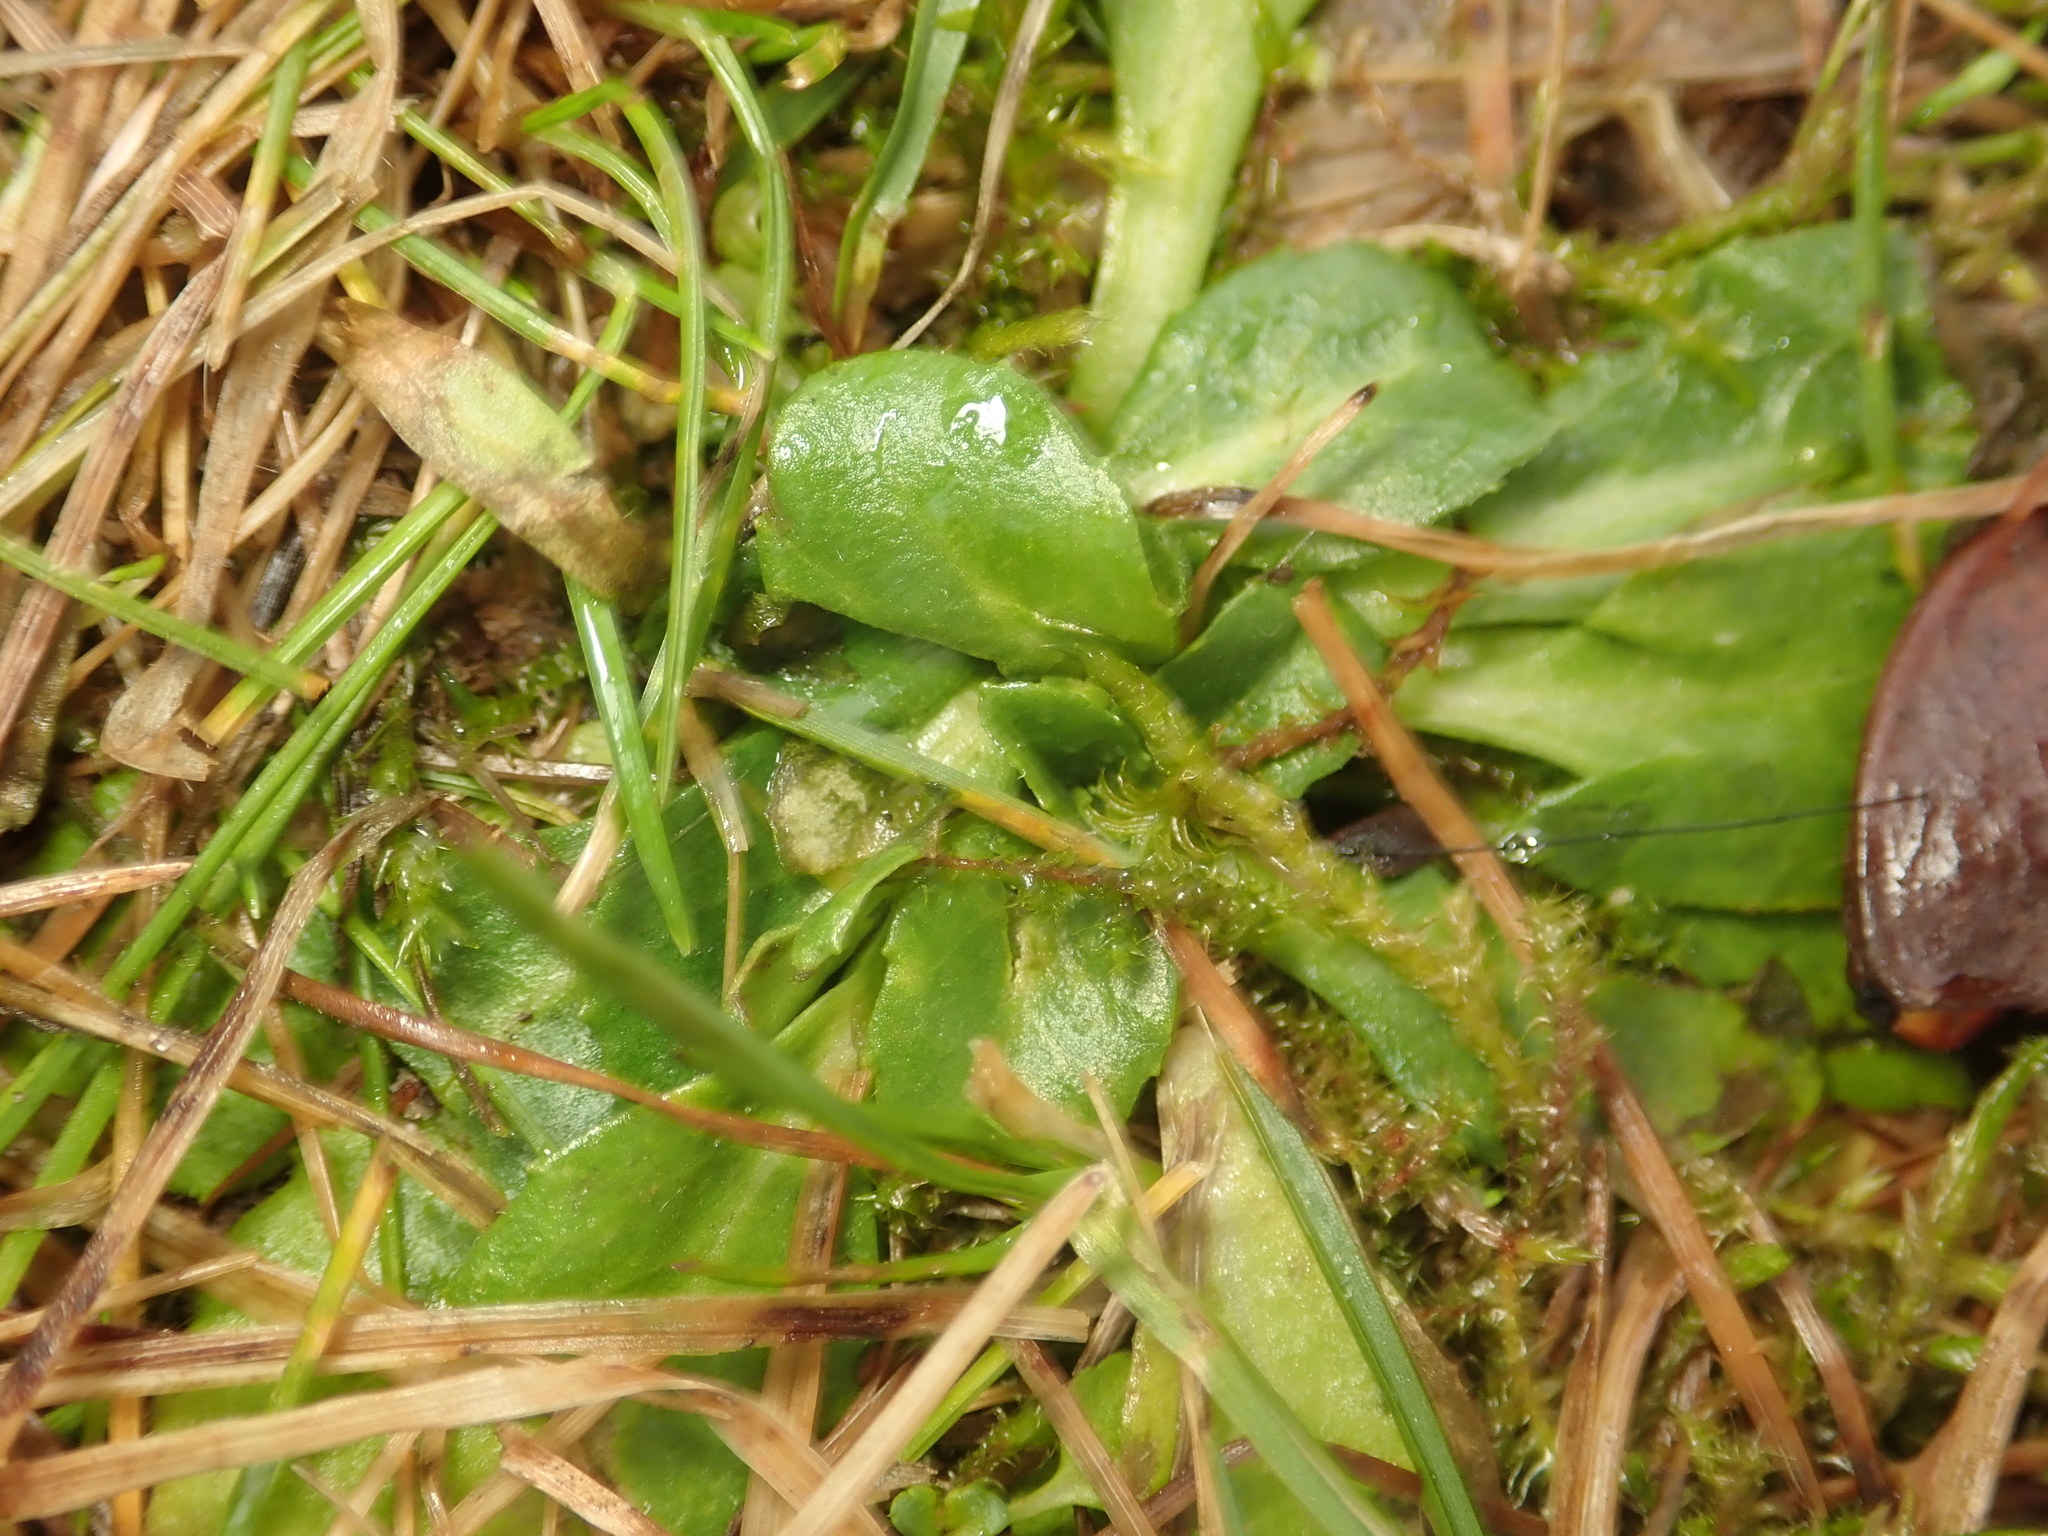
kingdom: Plantae
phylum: Tracheophyta
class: Magnoliopsida
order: Asterales
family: Asteraceae
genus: Bellis
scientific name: Bellis perennis
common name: Lawndaisy
